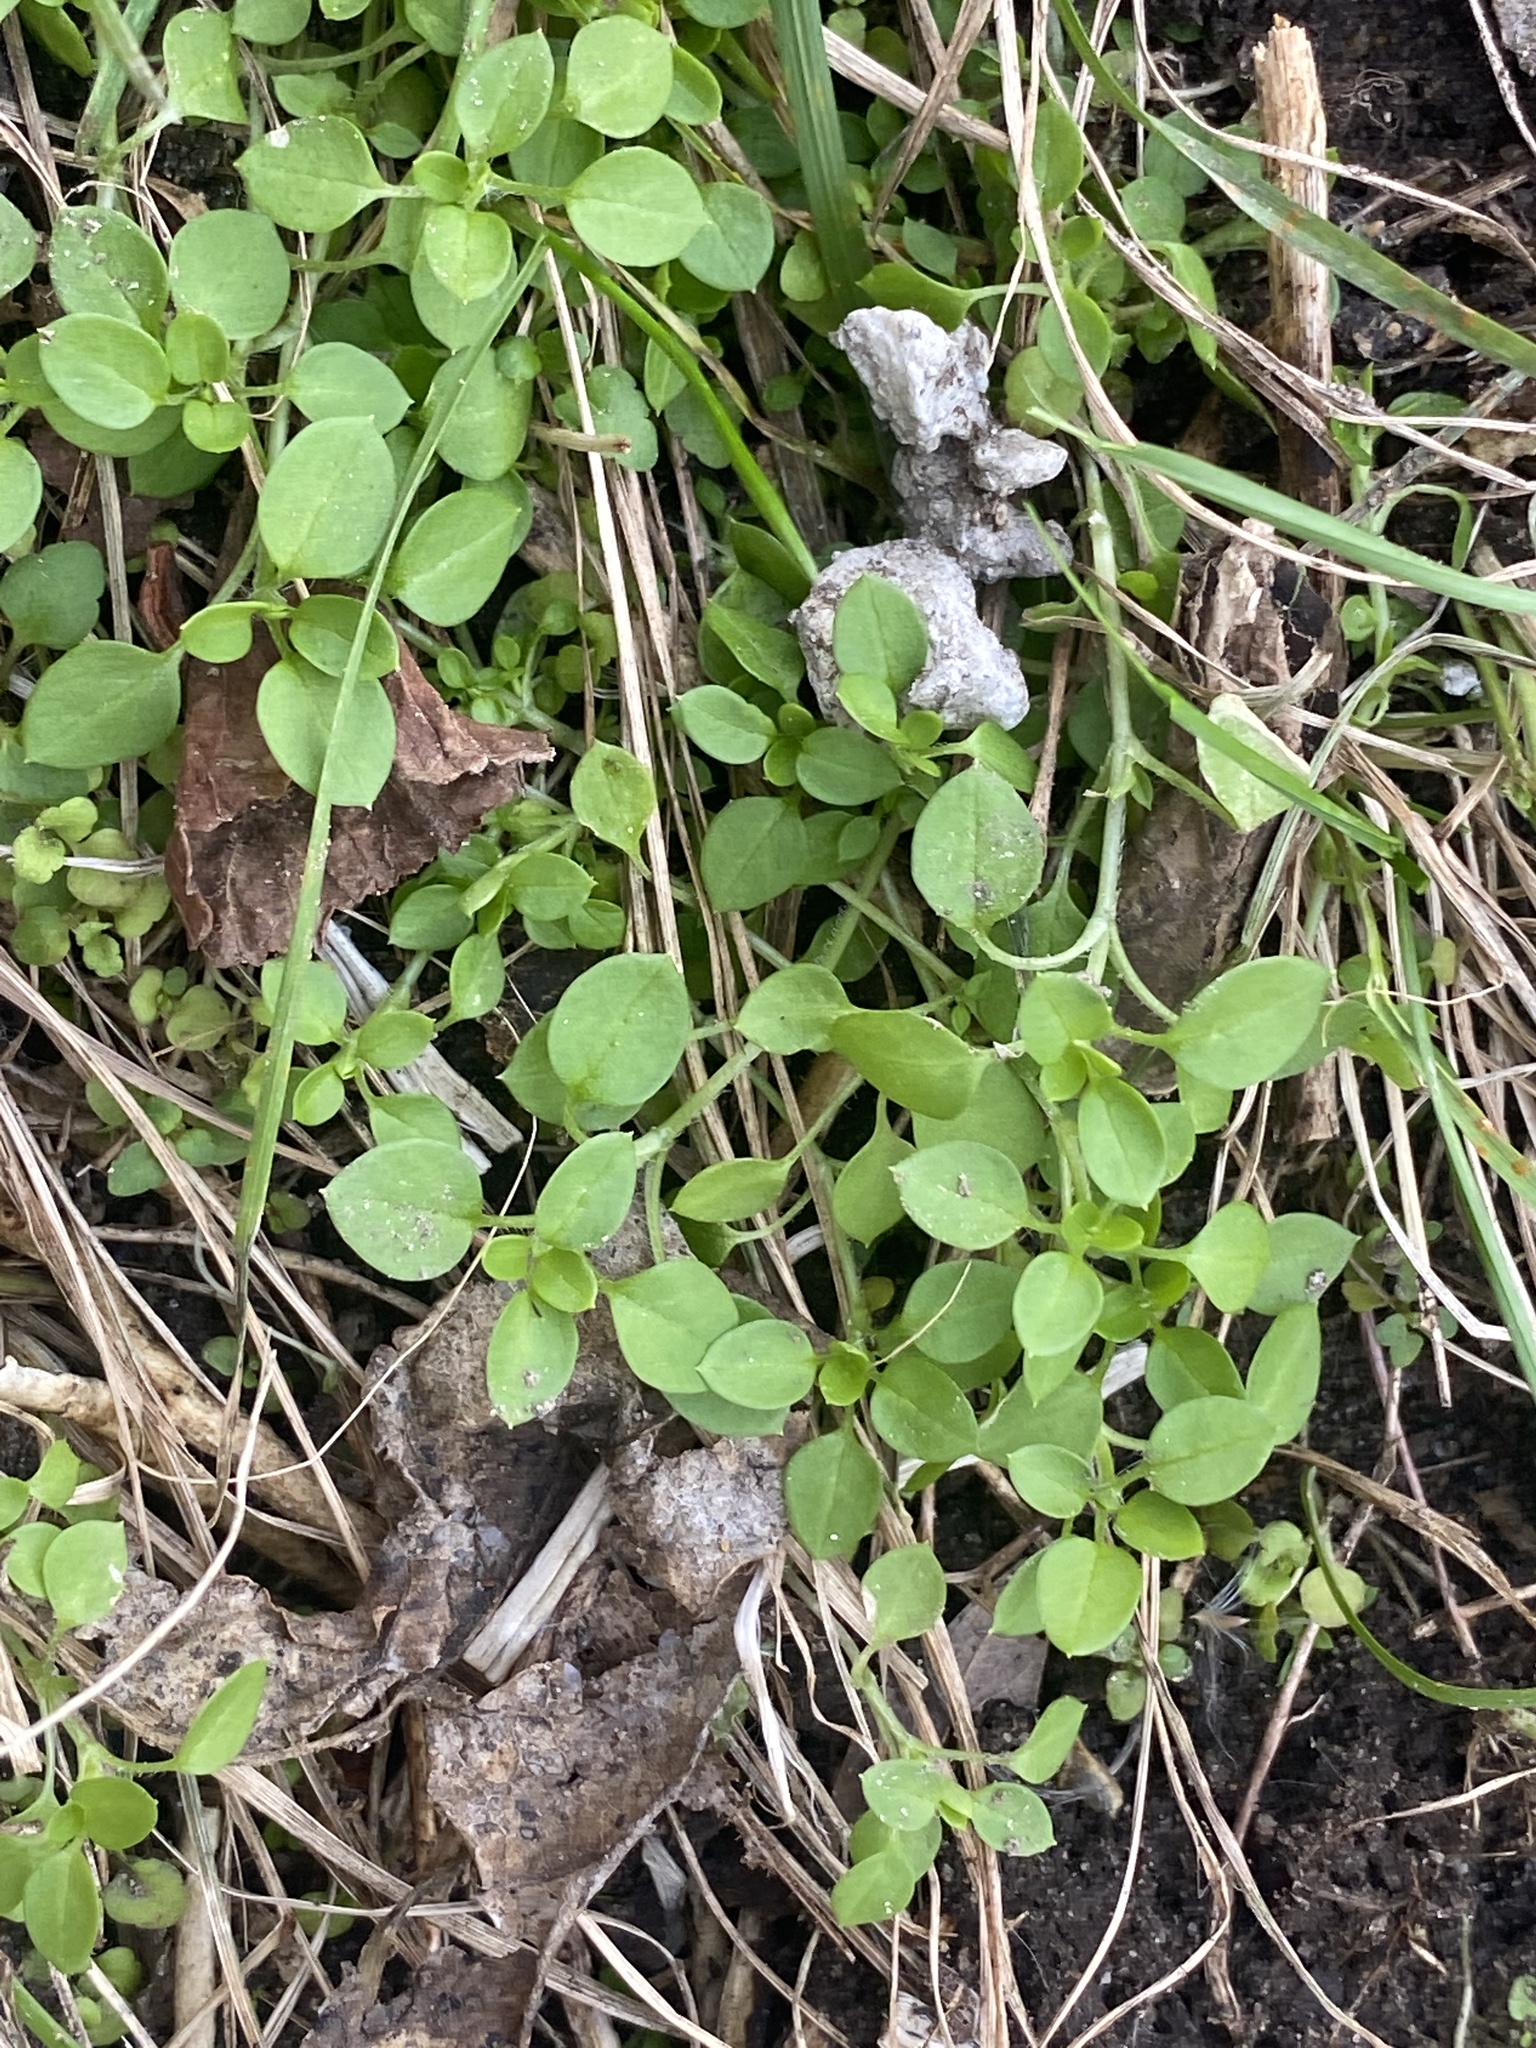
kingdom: Plantae
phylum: Tracheophyta
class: Magnoliopsida
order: Caryophyllales
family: Caryophyllaceae
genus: Stellaria
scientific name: Stellaria media
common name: Common chickweed
